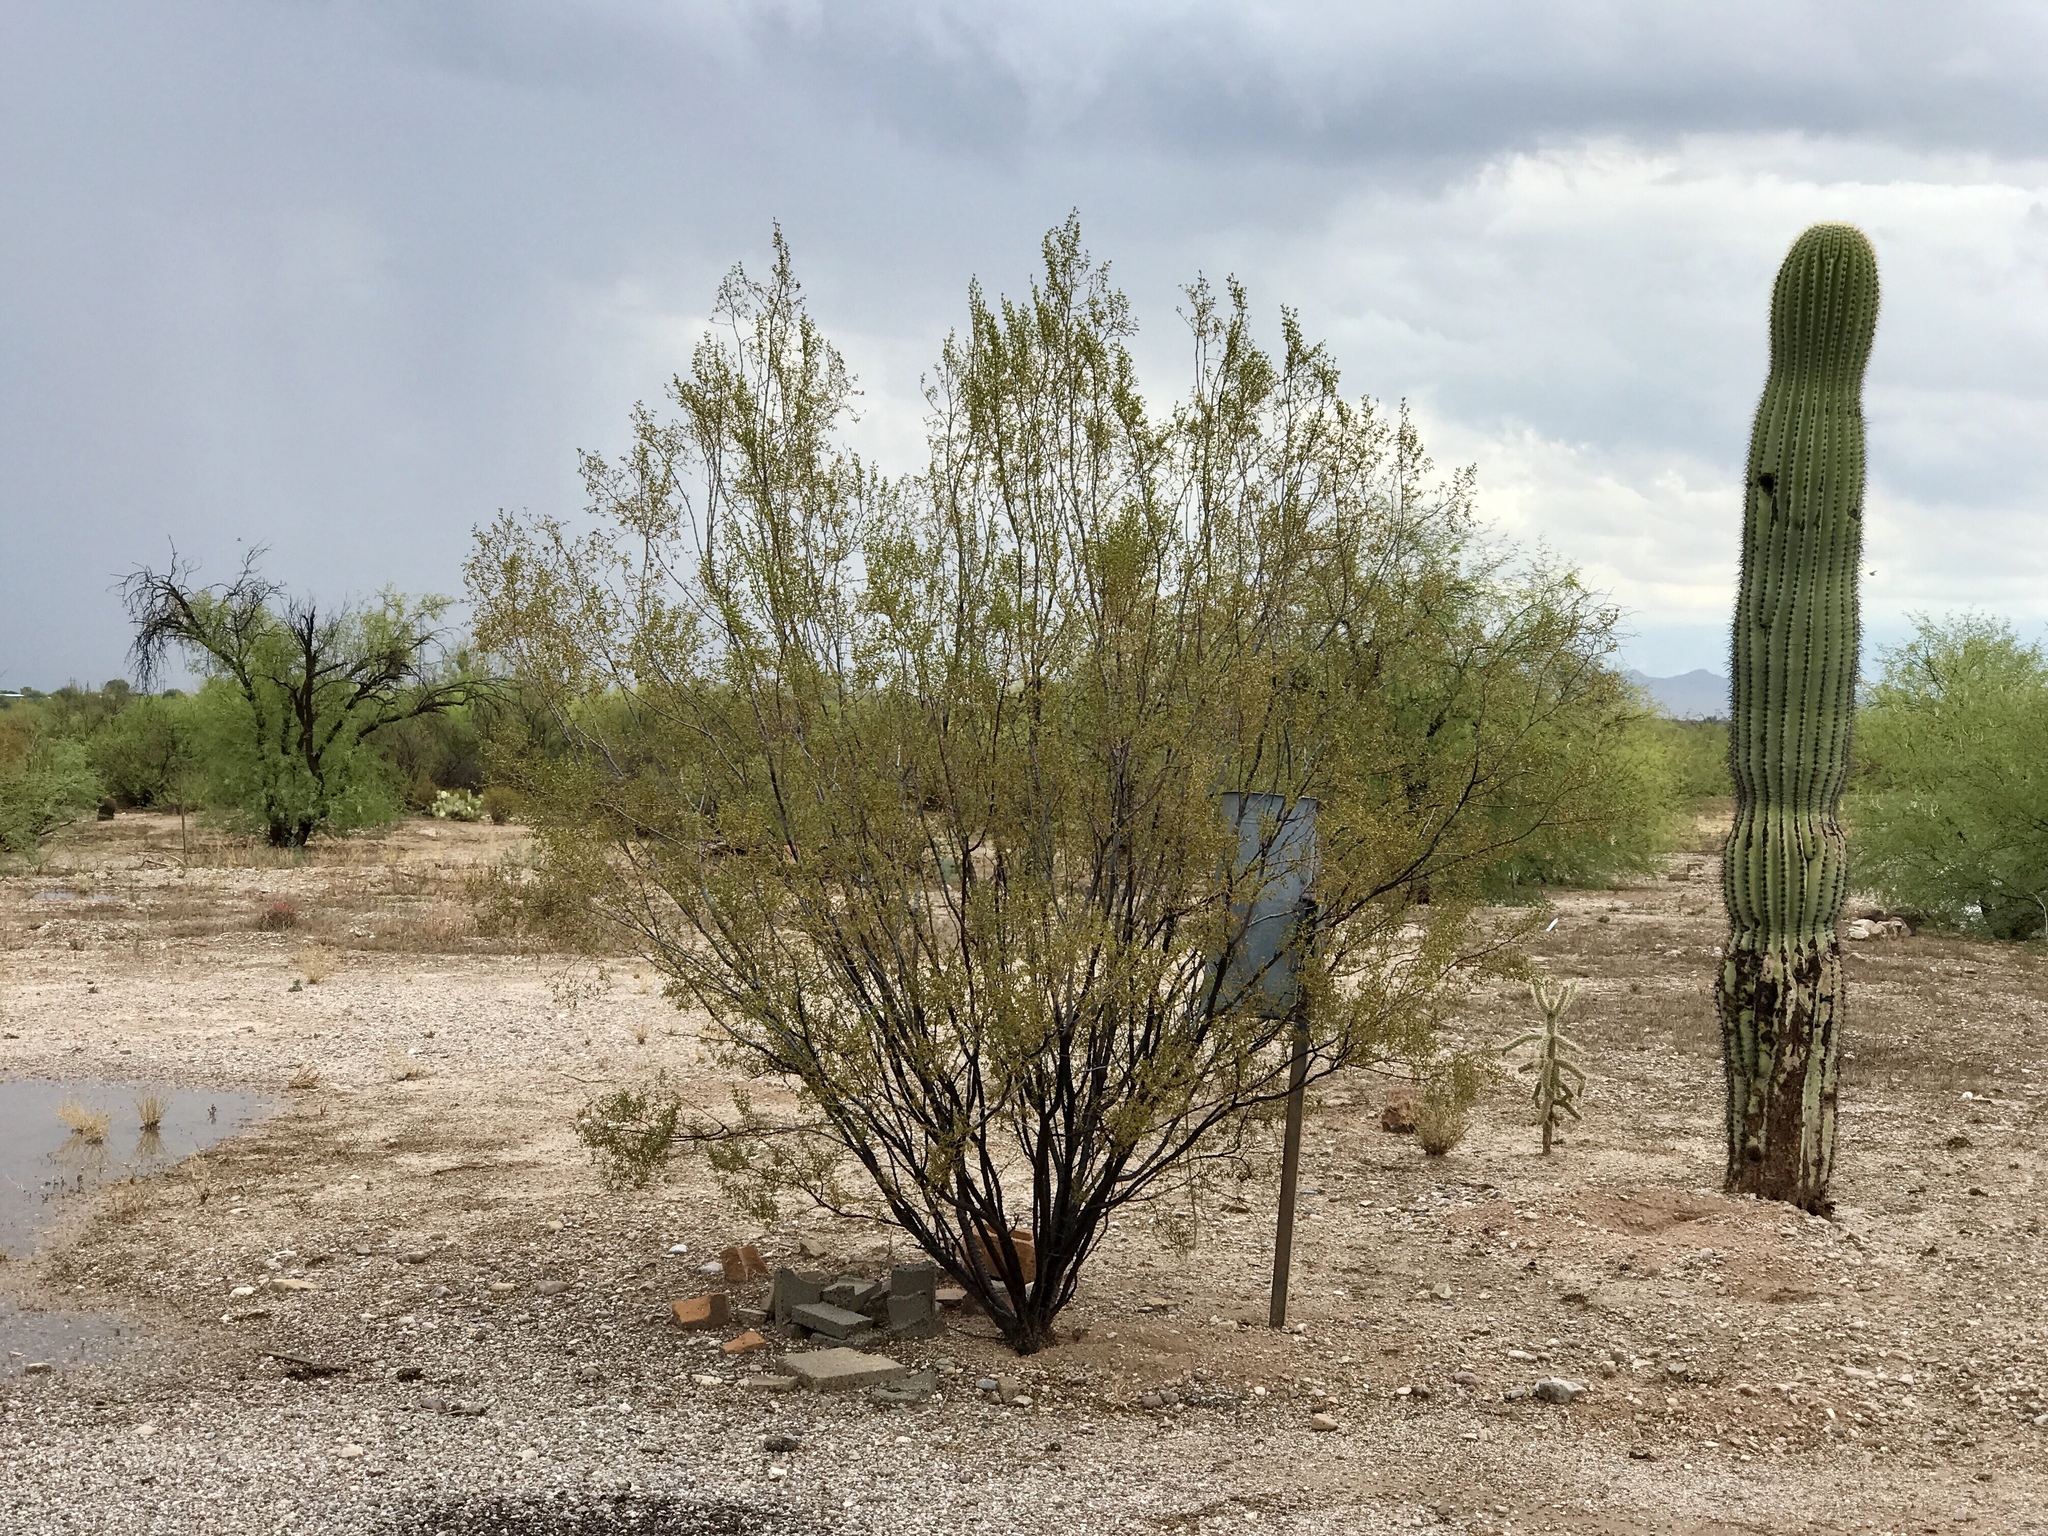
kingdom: Plantae
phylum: Tracheophyta
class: Magnoliopsida
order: Zygophyllales
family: Zygophyllaceae
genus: Larrea
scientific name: Larrea tridentata
